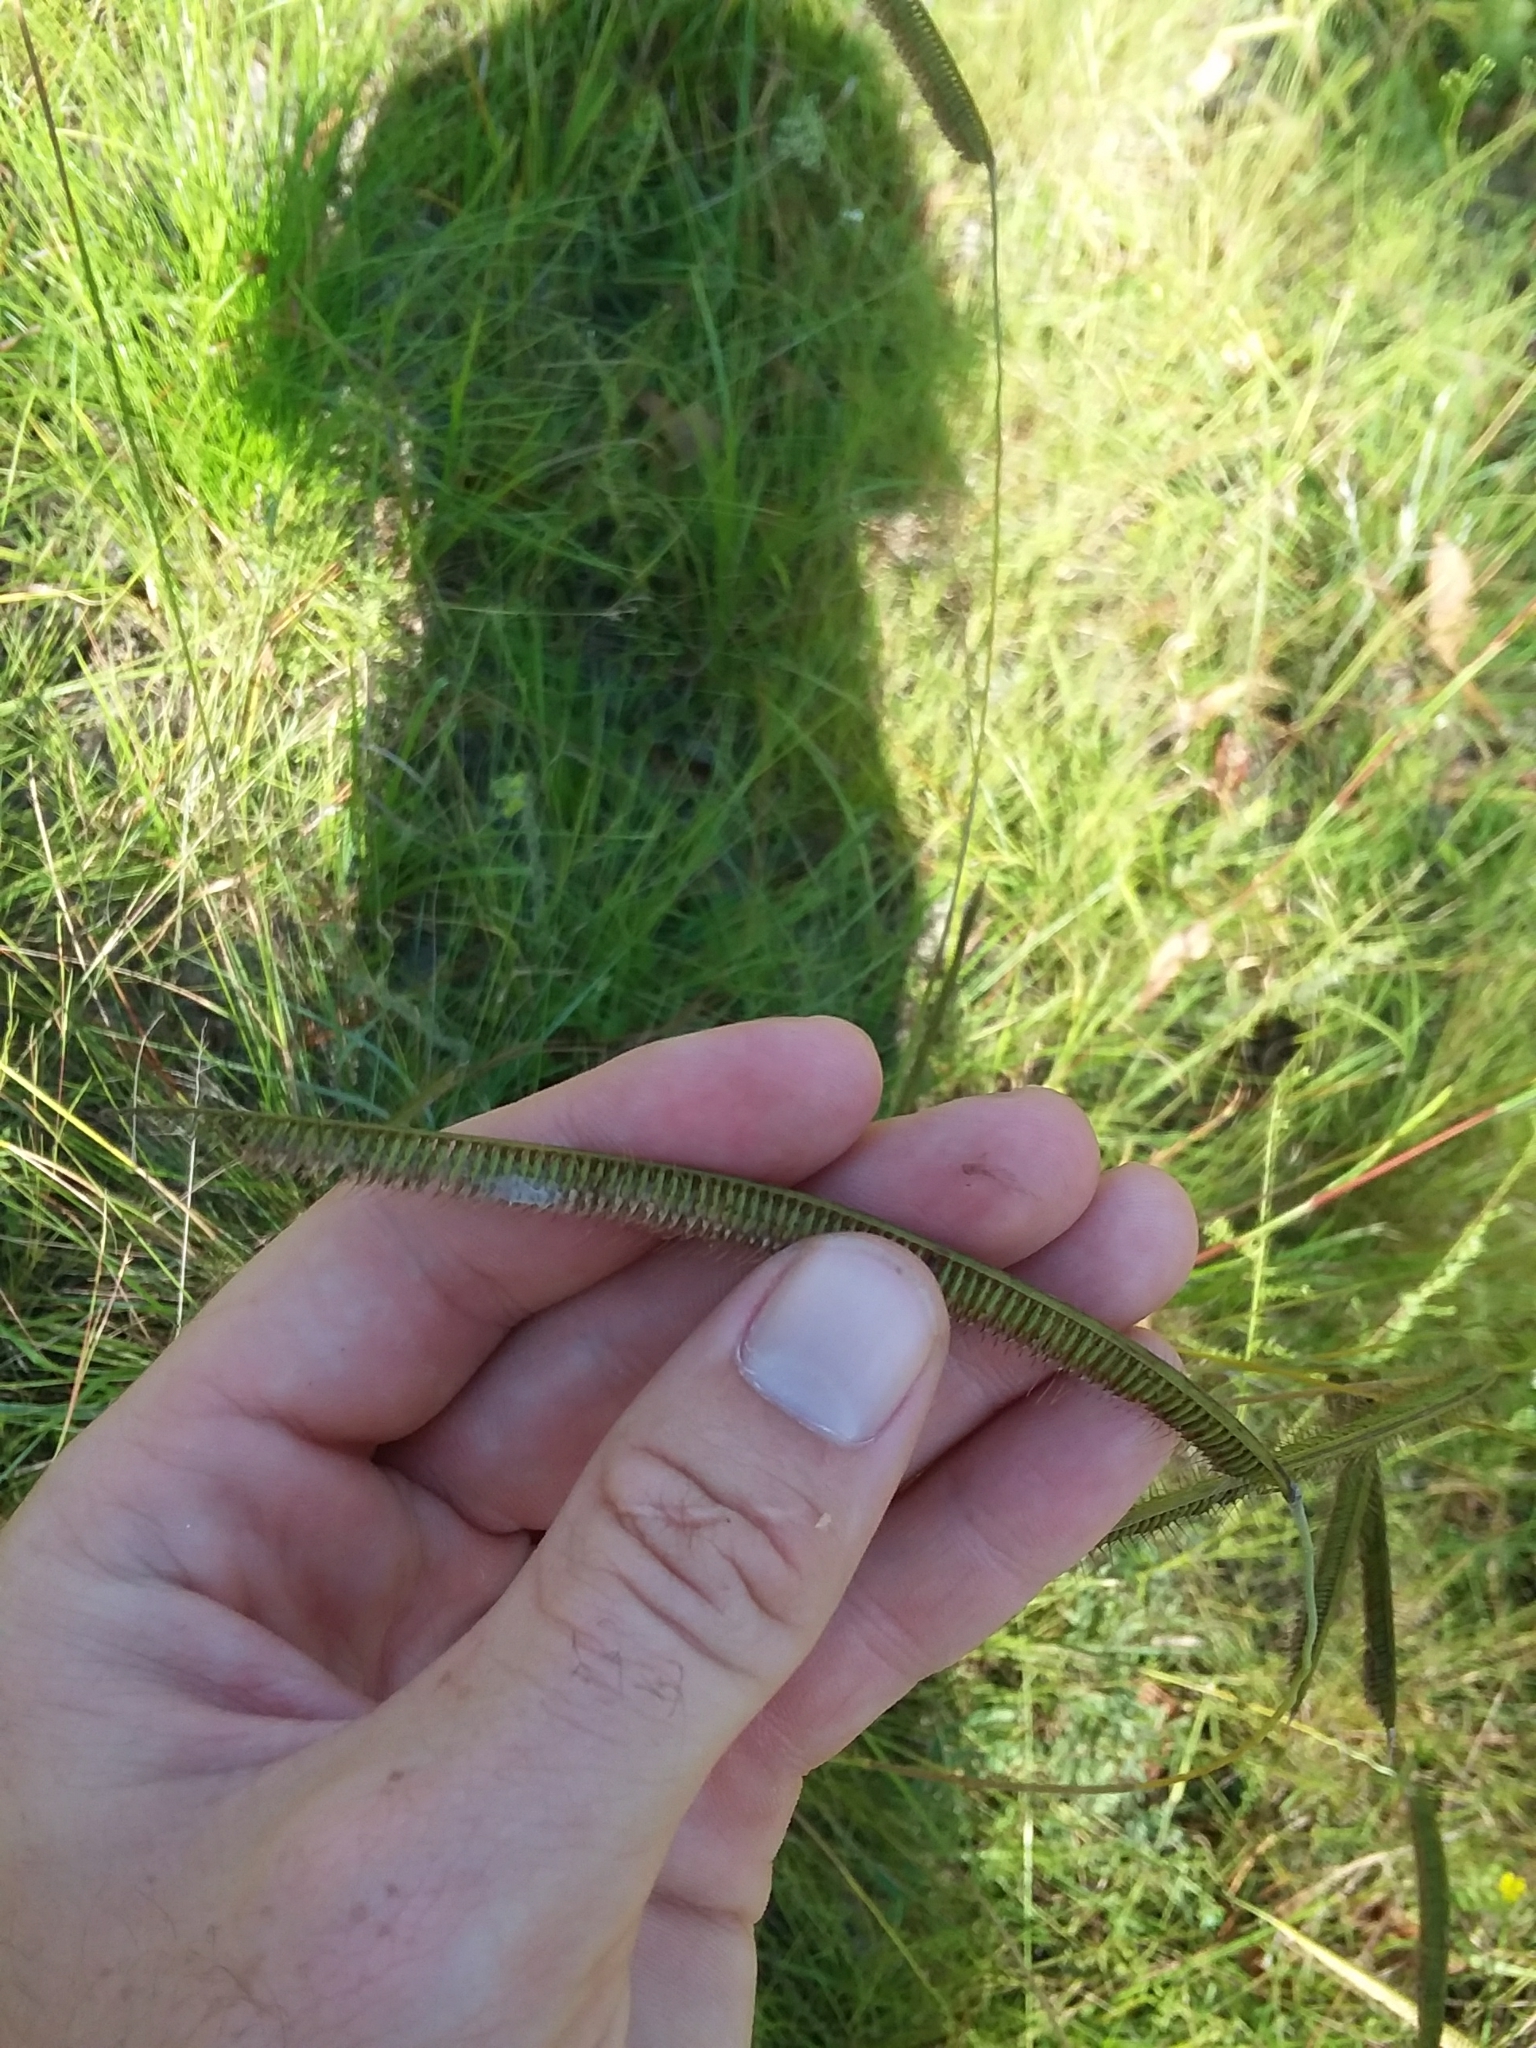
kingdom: Plantae
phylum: Tracheophyta
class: Liliopsida
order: Poales
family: Poaceae
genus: Ctenium
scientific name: Ctenium aromaticum
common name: Toothache grass
